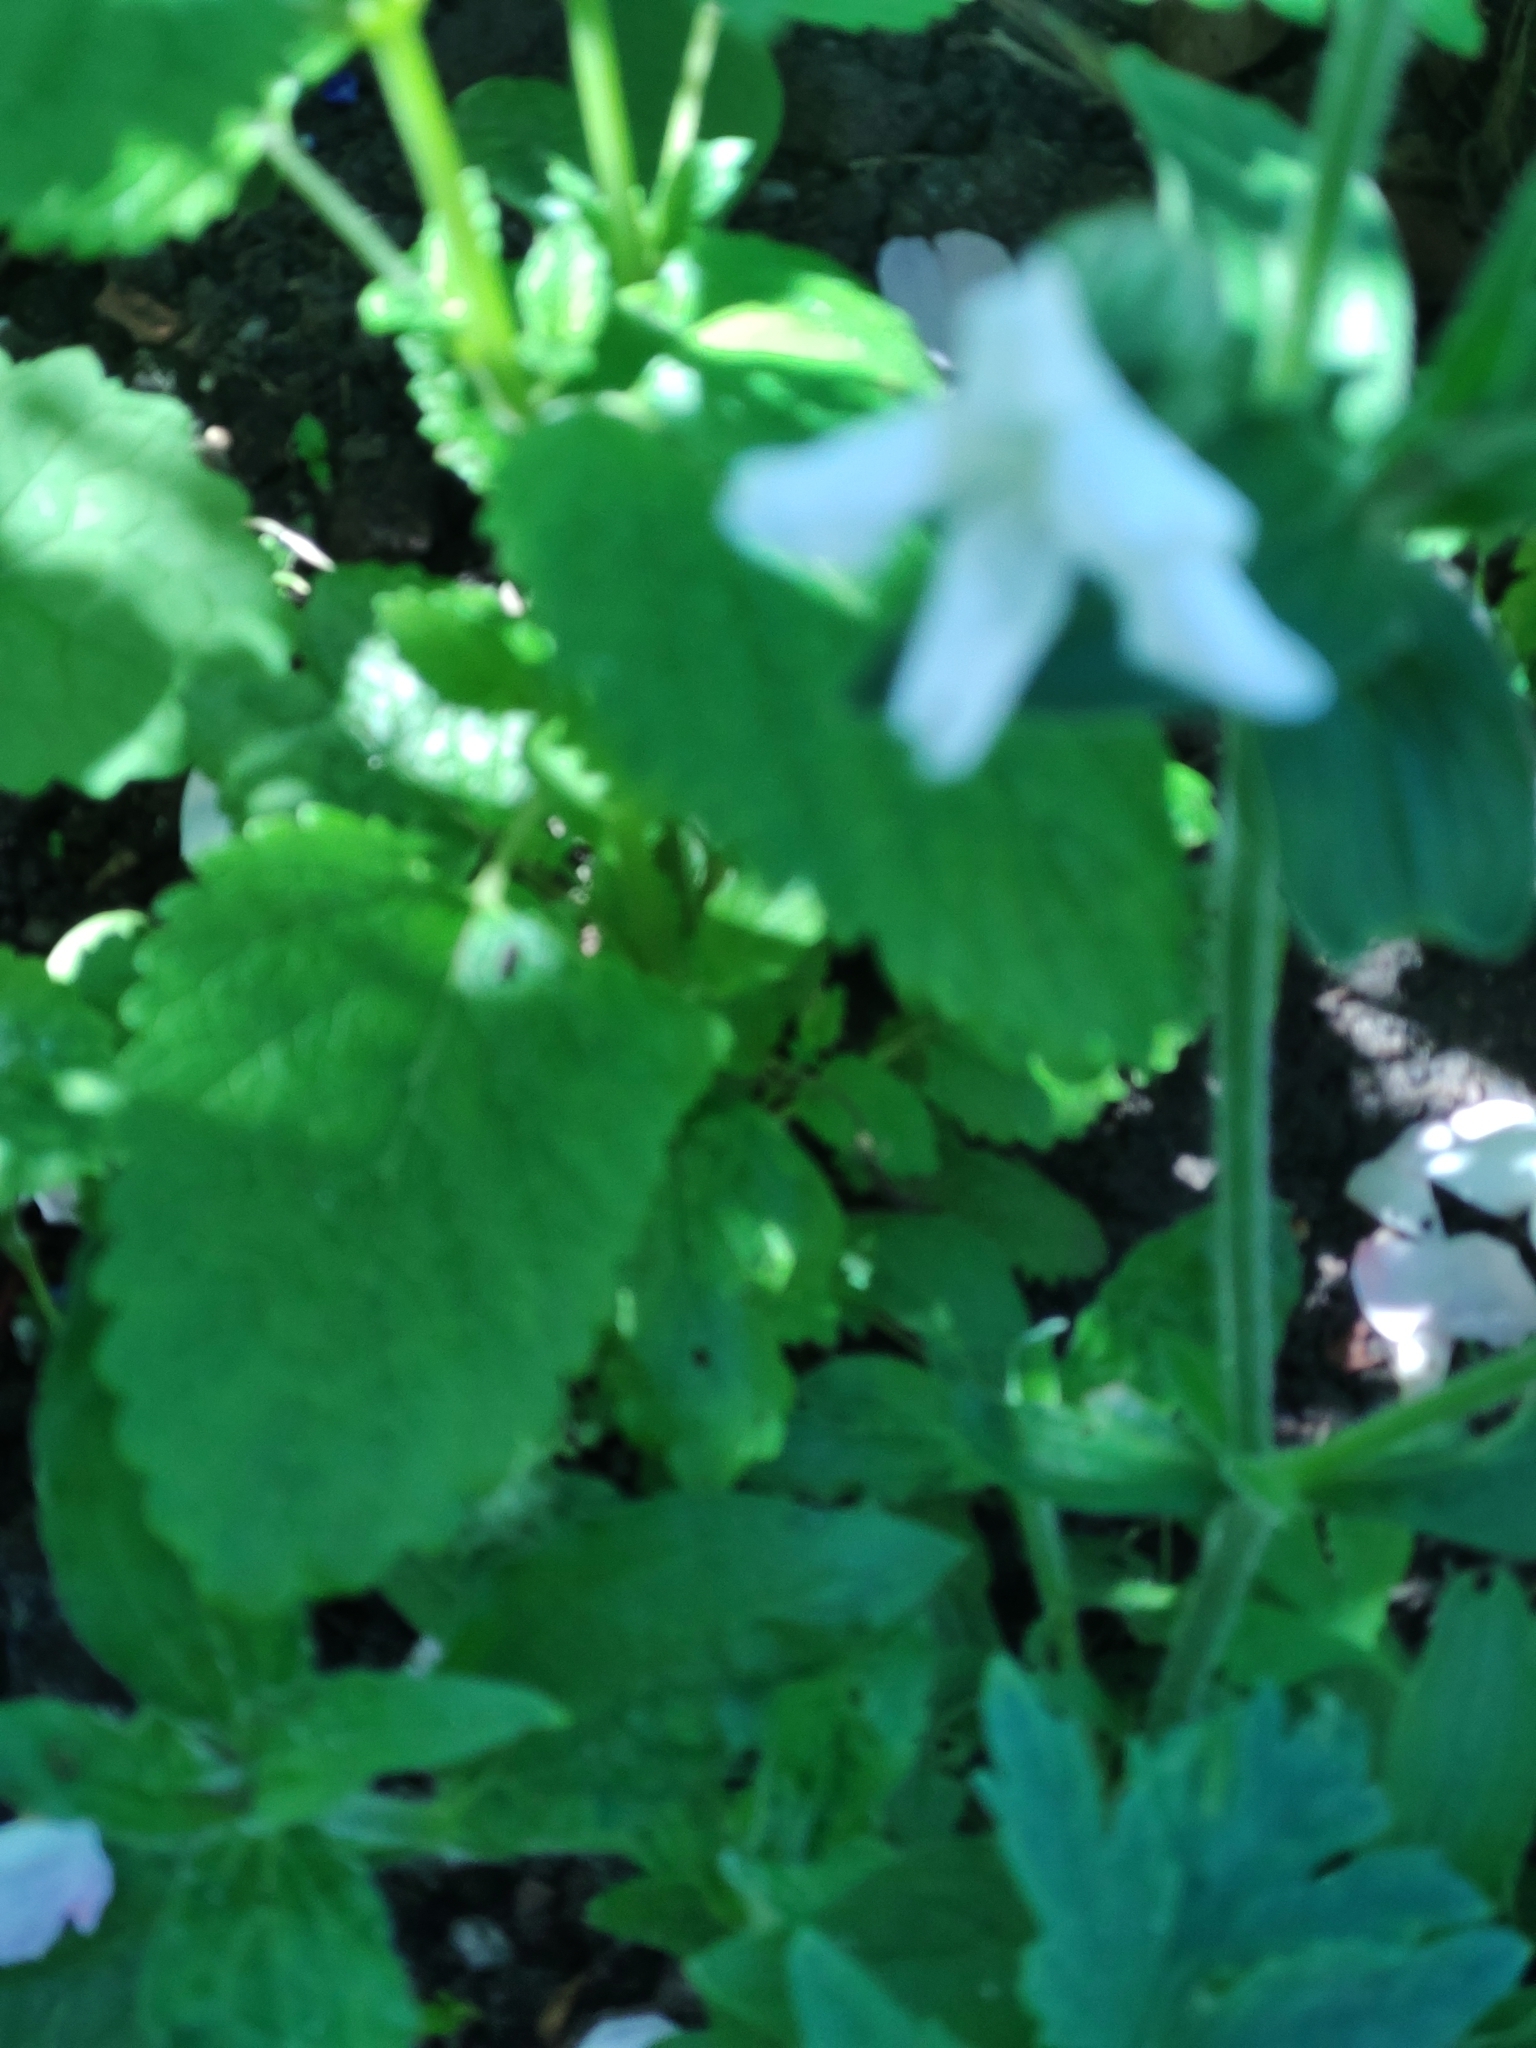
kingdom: Plantae
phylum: Tracheophyta
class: Magnoliopsida
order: Caryophyllales
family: Caryophyllaceae
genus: Silene
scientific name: Silene latifolia
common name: White campion
